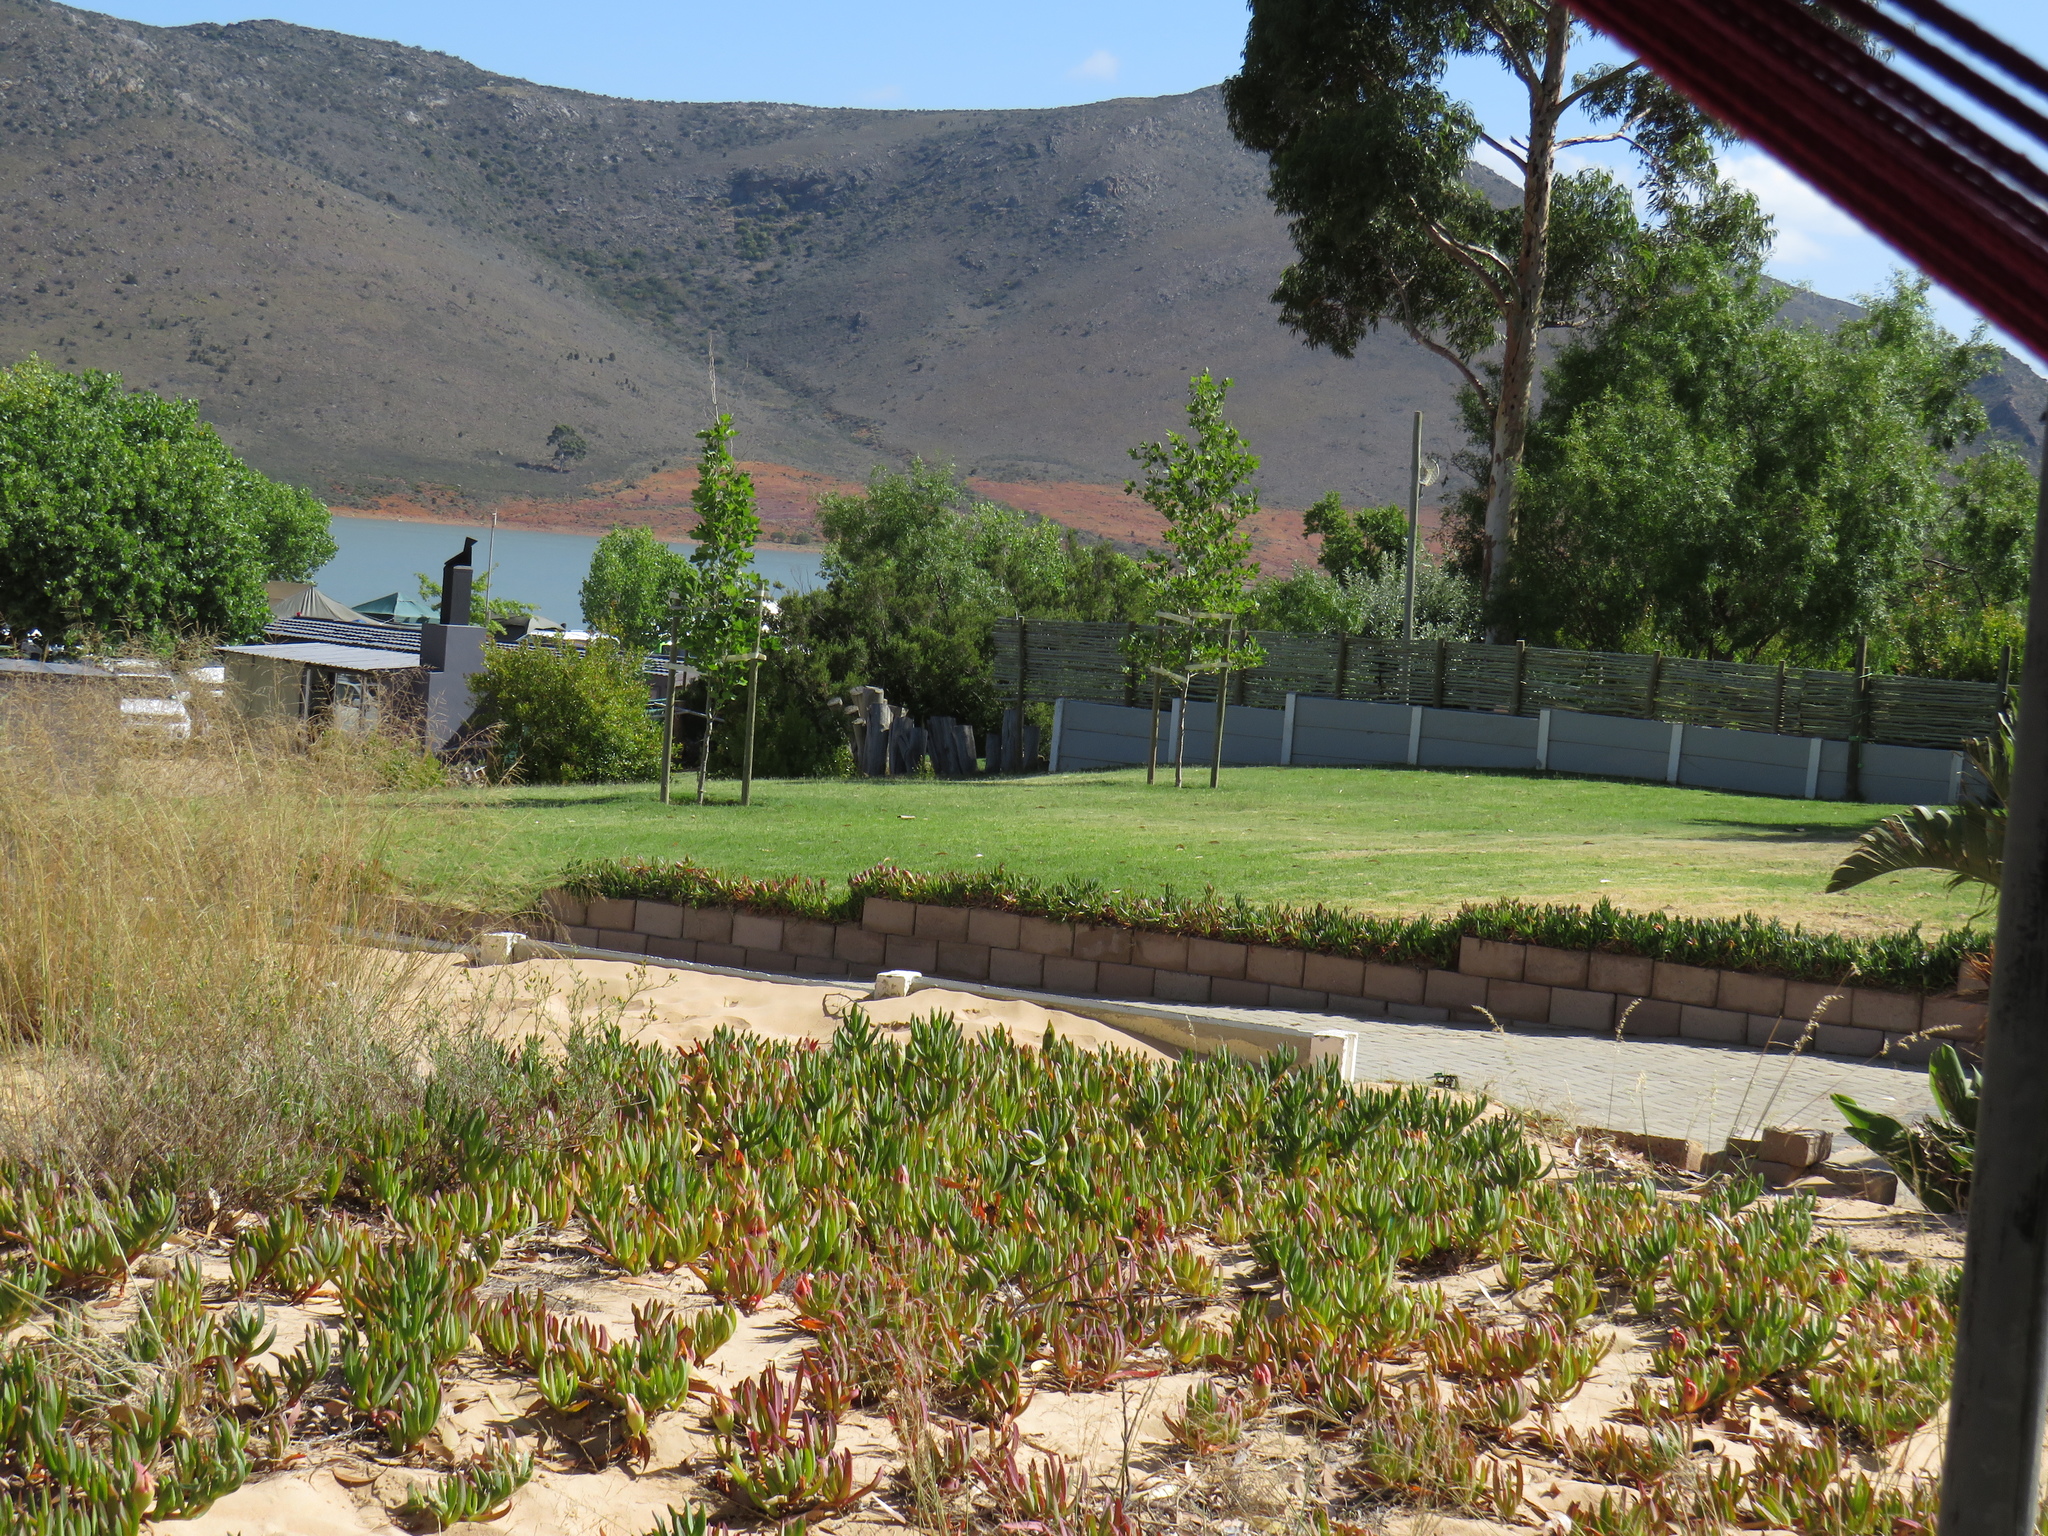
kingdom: Plantae
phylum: Tracheophyta
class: Liliopsida
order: Poales
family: Poaceae
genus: Cenchrus
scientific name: Cenchrus clandestinus
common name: Kikuyugrass
